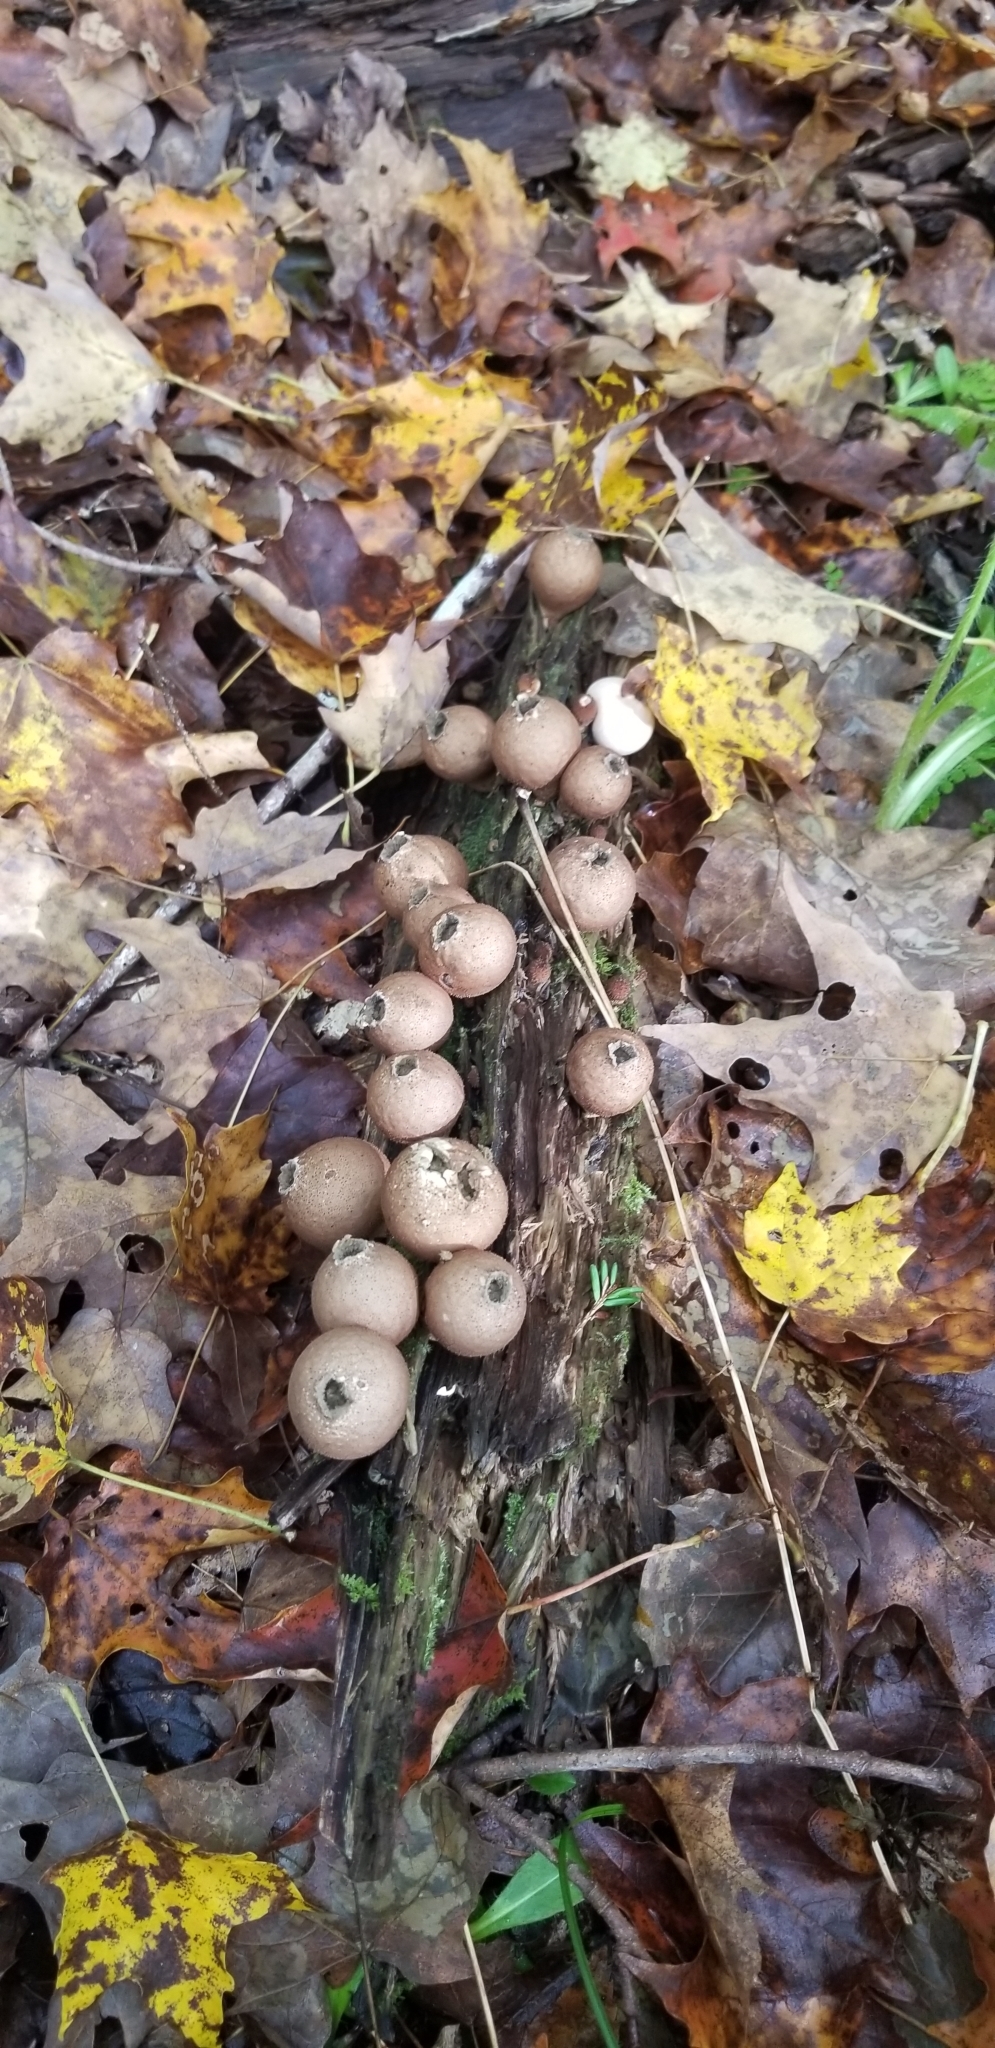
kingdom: Fungi
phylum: Basidiomycota
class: Agaricomycetes
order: Agaricales
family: Lycoperdaceae
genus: Apioperdon
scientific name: Apioperdon pyriforme
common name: Pear-shaped puffball
